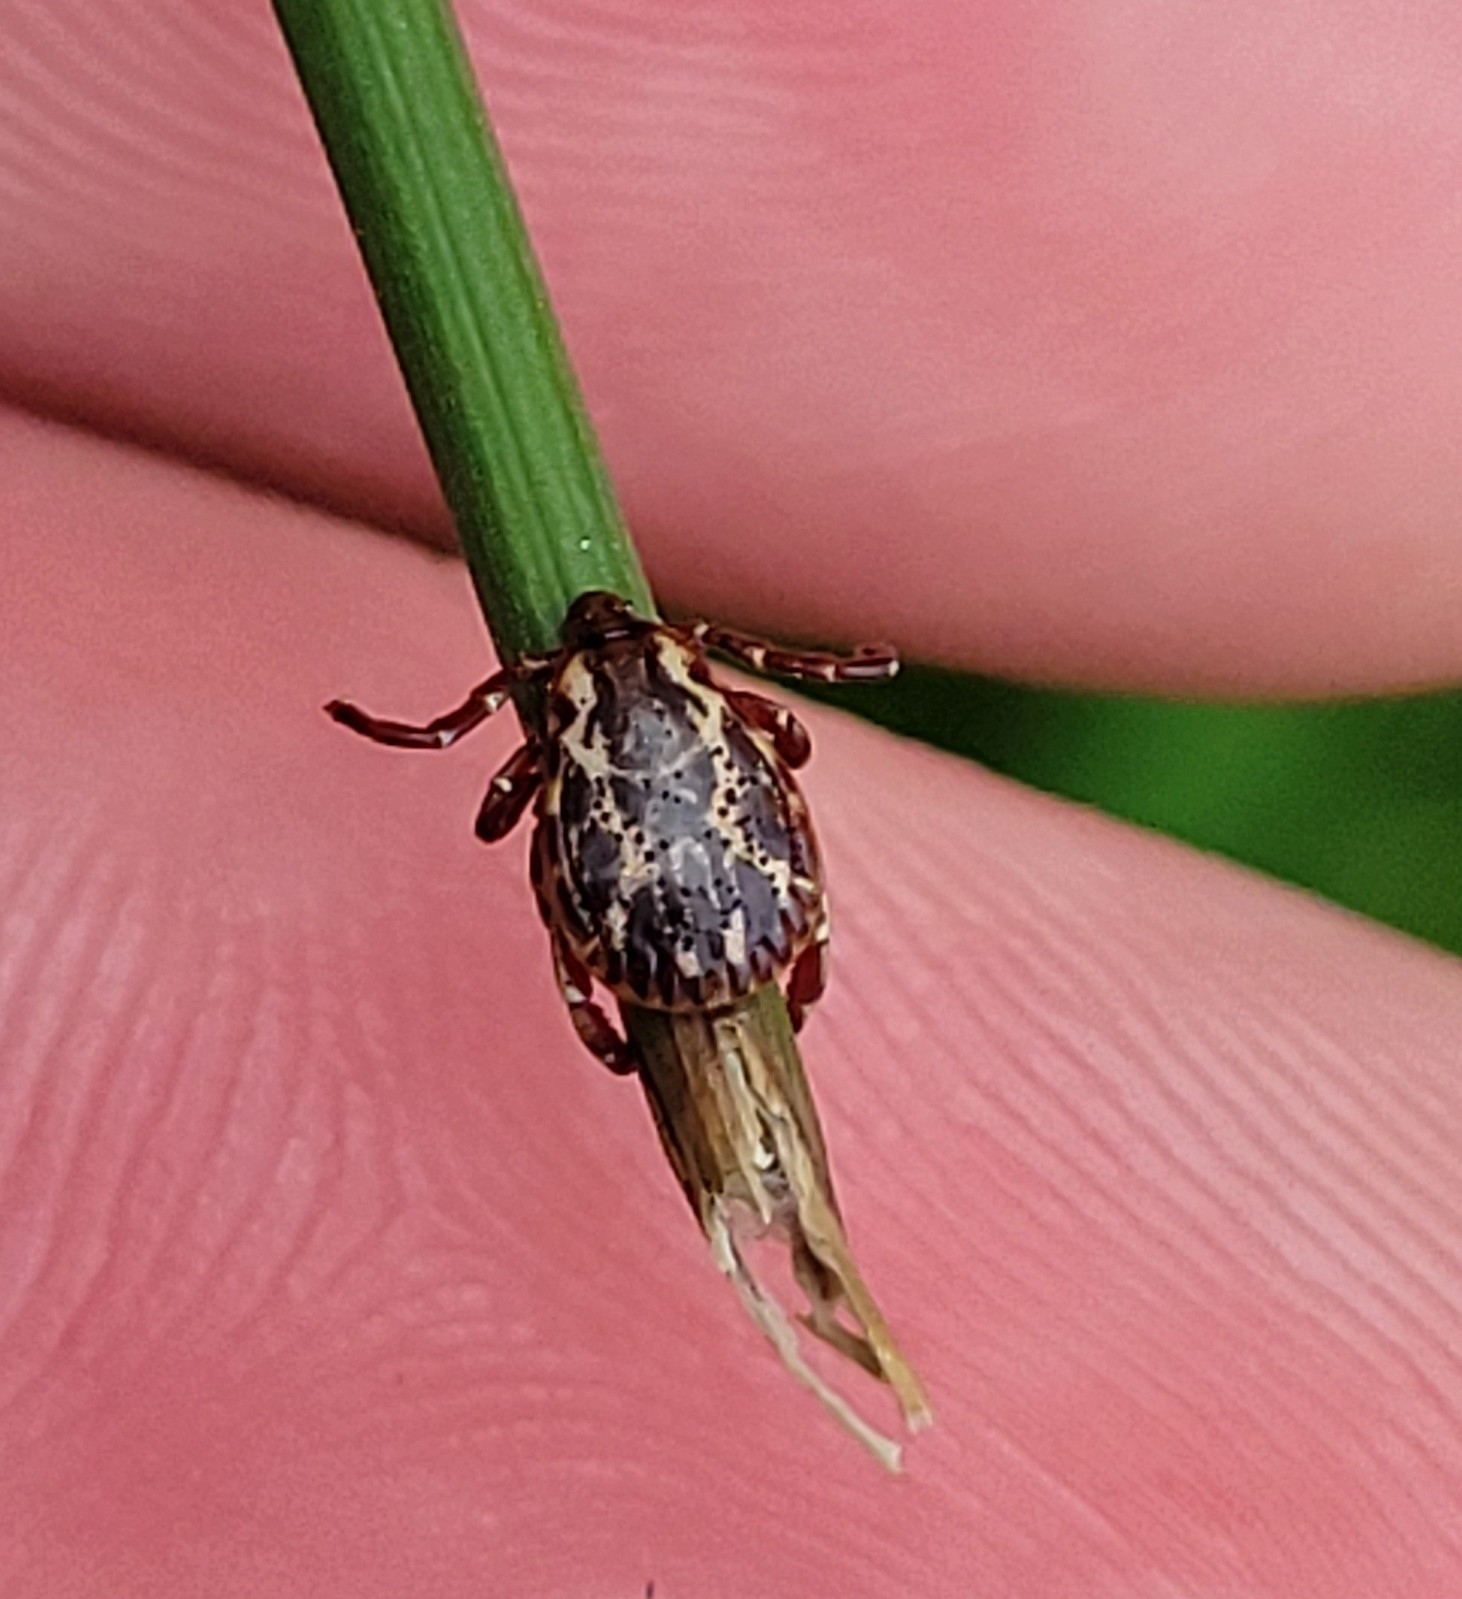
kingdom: Animalia
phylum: Arthropoda
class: Arachnida
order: Ixodida
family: Ixodidae
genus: Dermacentor
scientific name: Dermacentor variabilis
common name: American dog tick
